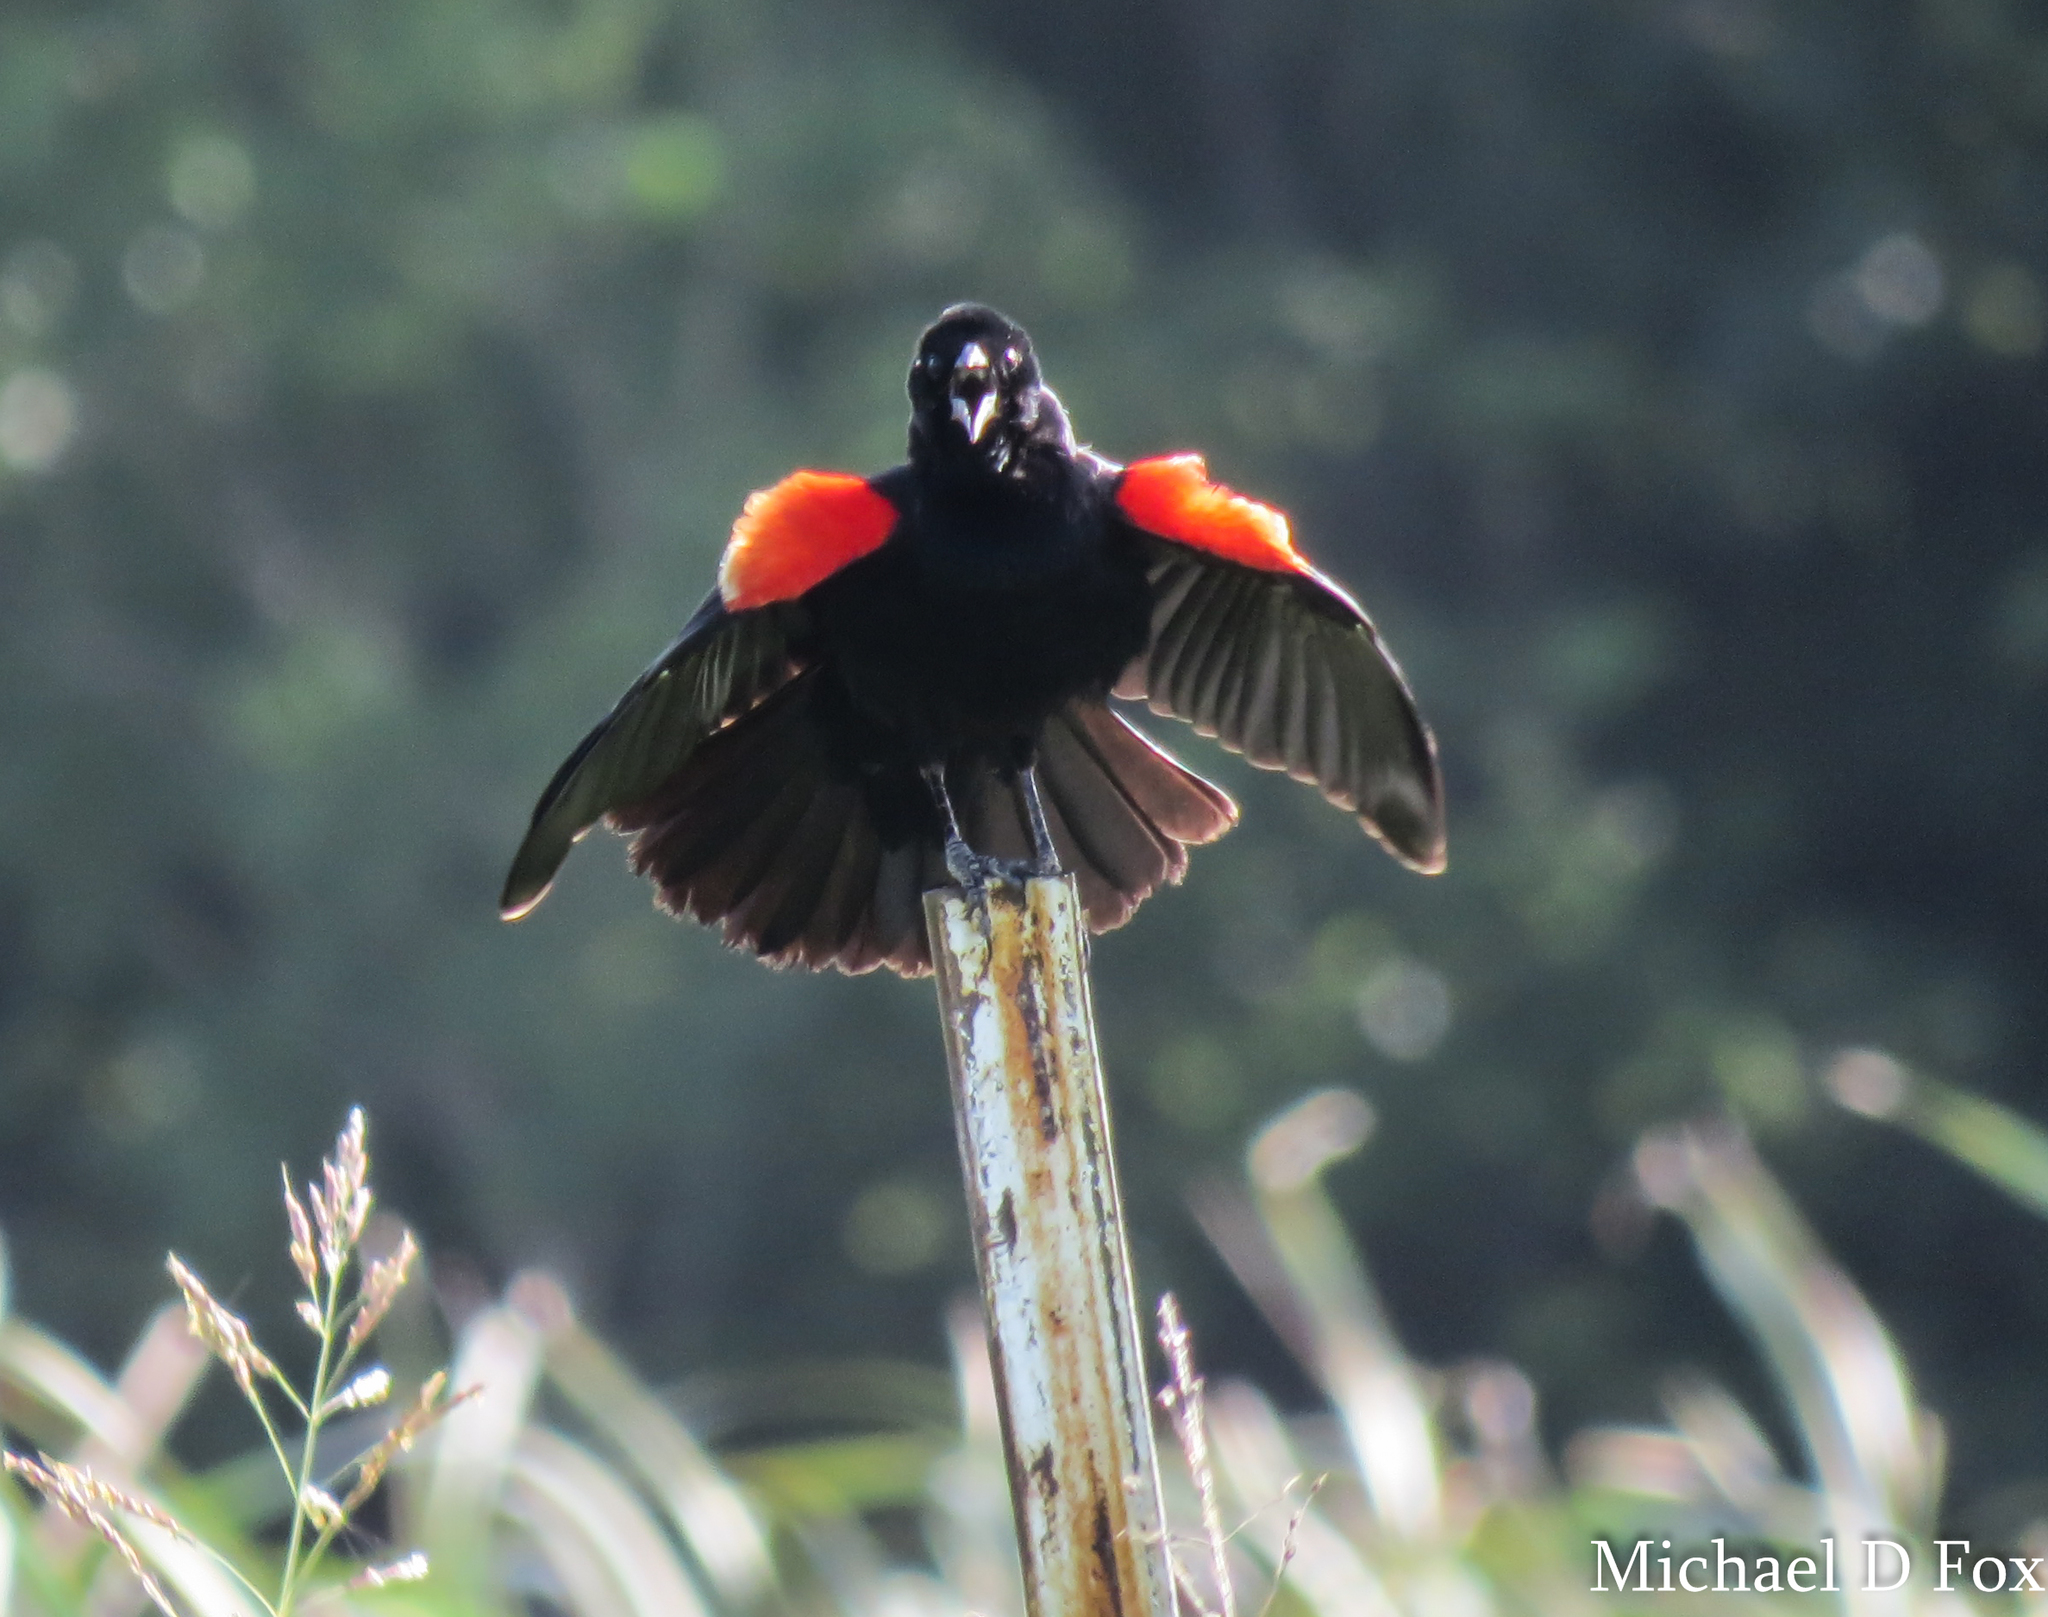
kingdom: Animalia
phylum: Chordata
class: Aves
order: Passeriformes
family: Icteridae
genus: Agelaius
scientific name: Agelaius phoeniceus
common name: Red-winged blackbird
